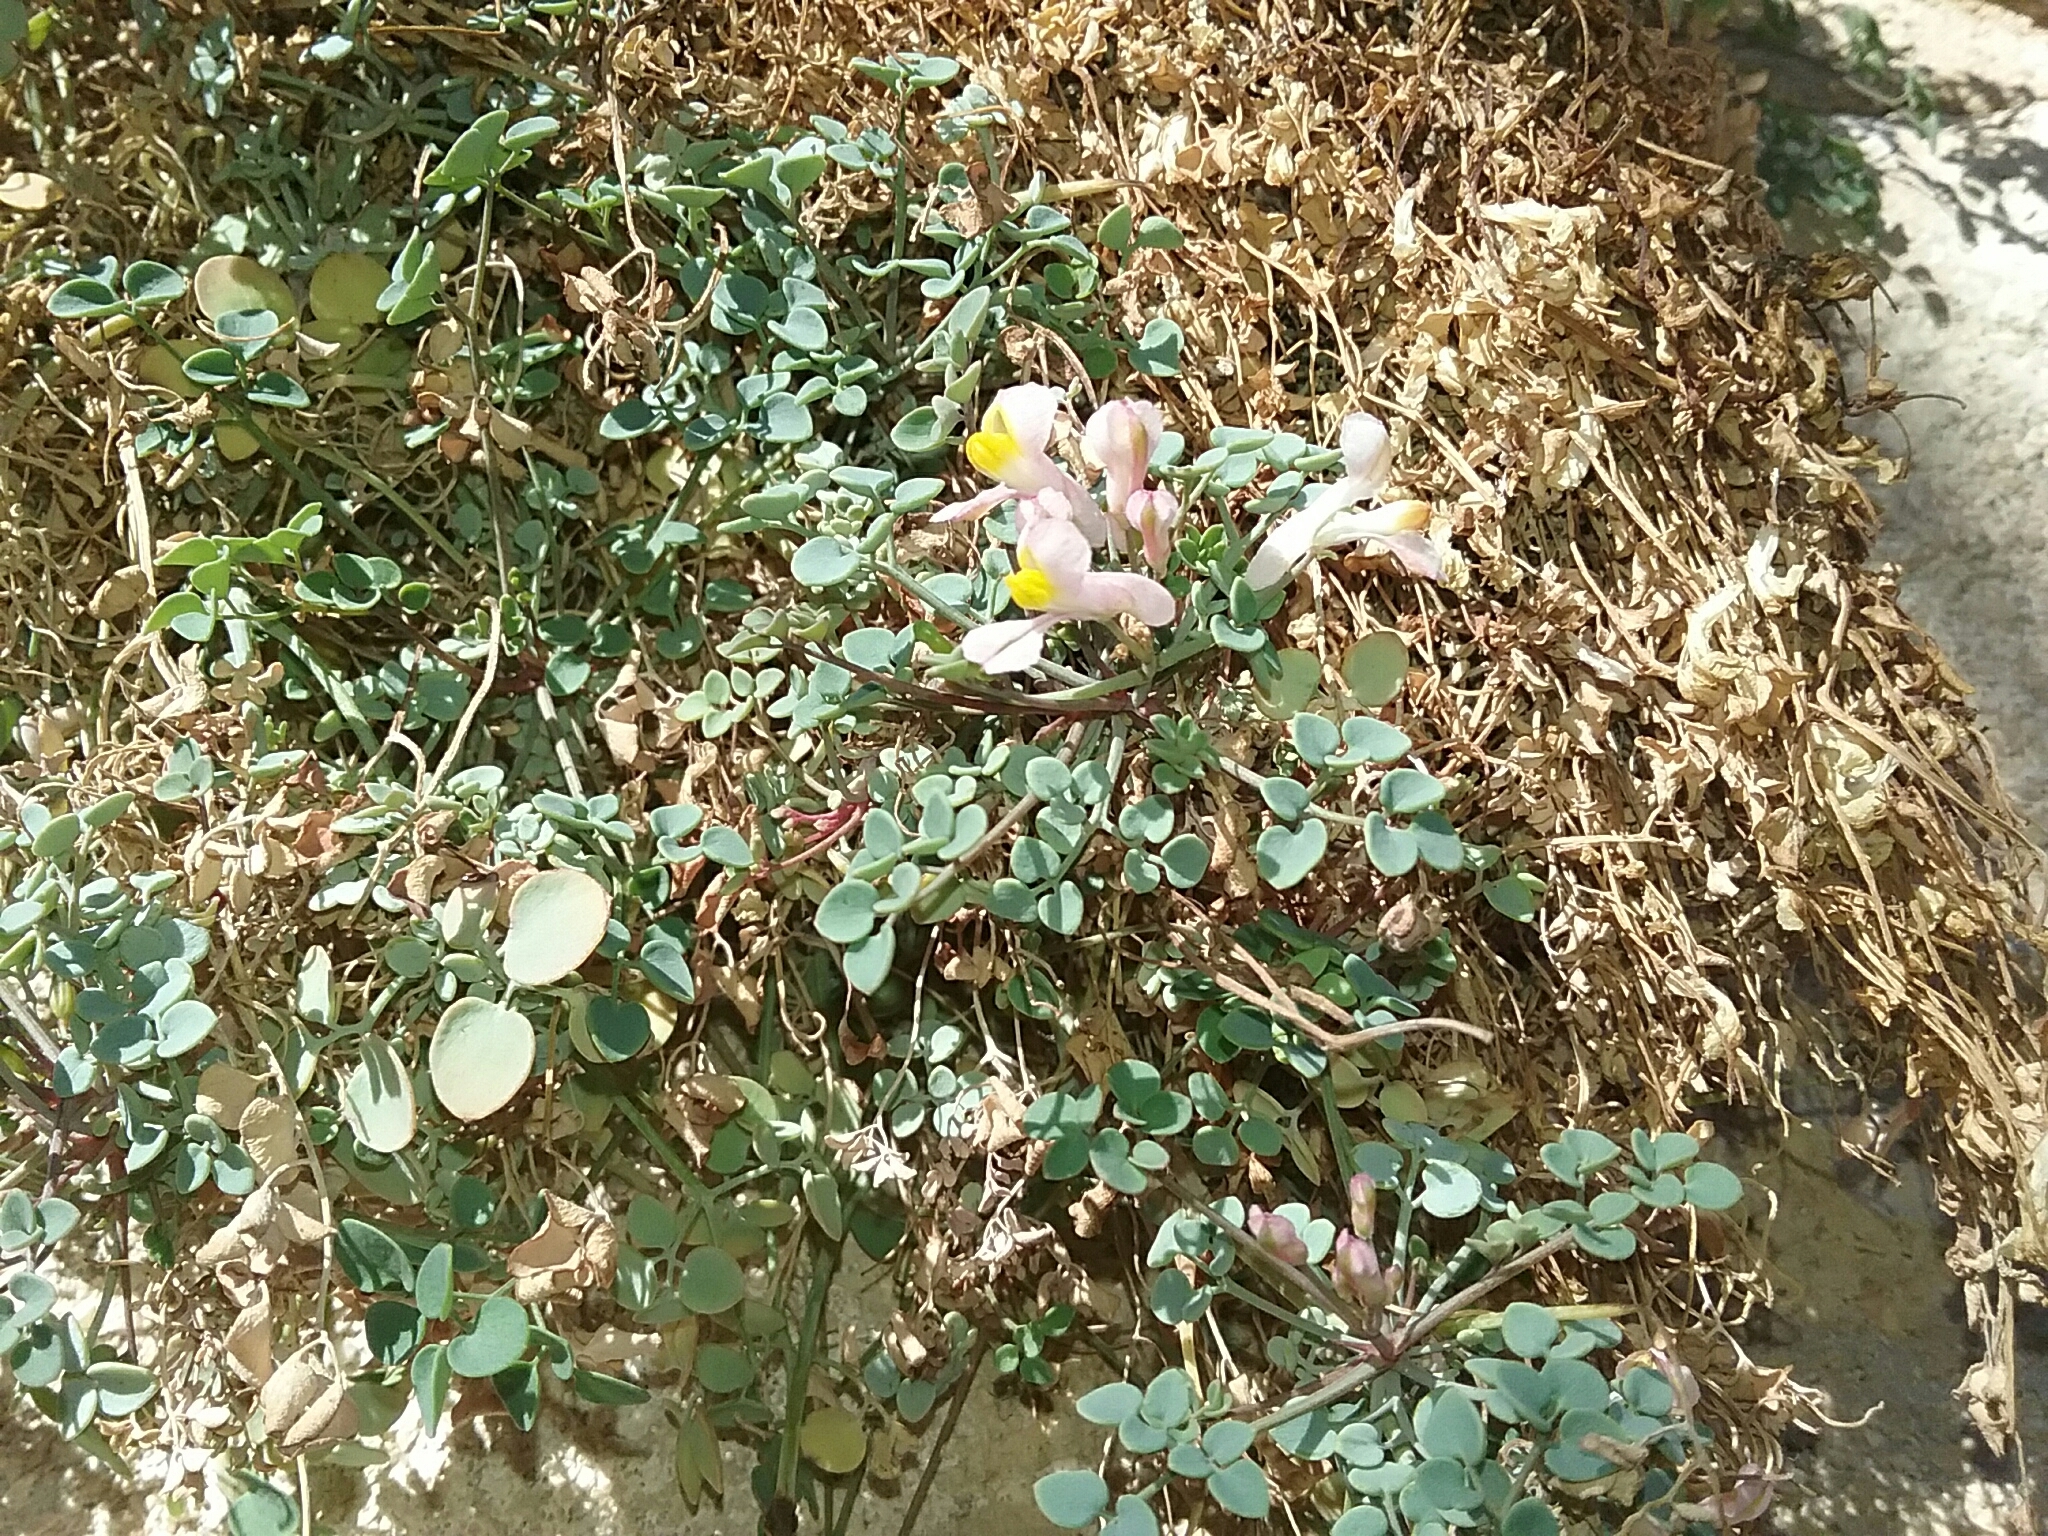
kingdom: Plantae
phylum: Tracheophyta
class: Magnoliopsida
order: Ranunculales
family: Papaveraceae
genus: Sarcocapnos
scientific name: Sarcocapnos enneaphylla
